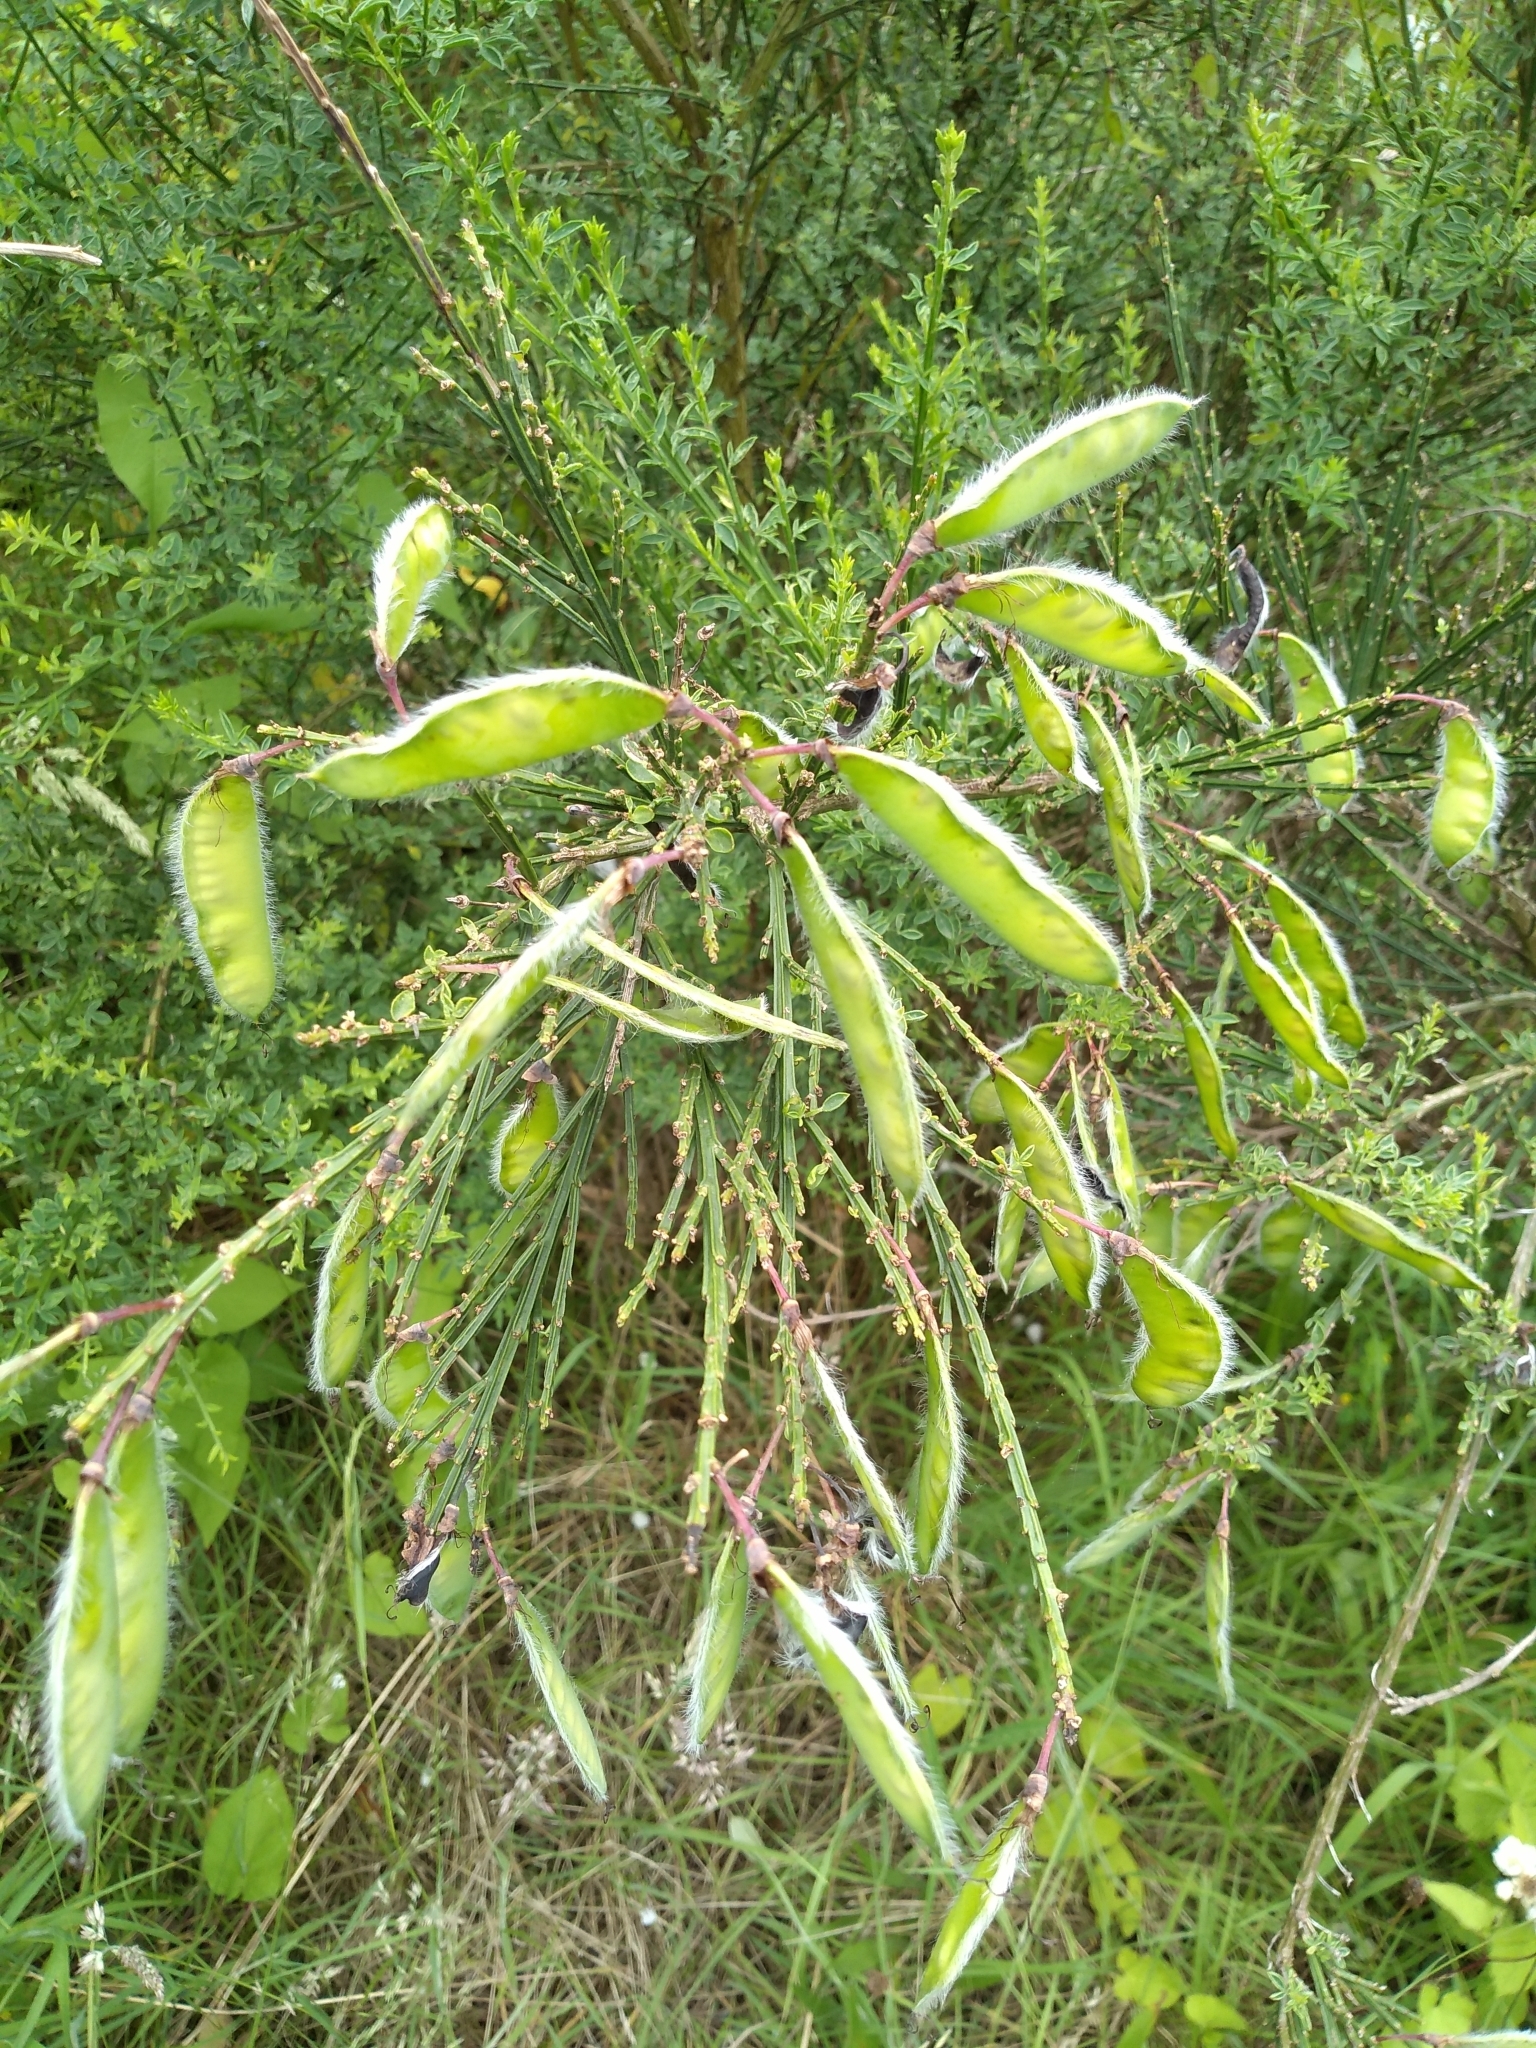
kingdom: Plantae
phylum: Tracheophyta
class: Magnoliopsida
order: Fabales
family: Fabaceae
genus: Cytisus
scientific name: Cytisus scoparius
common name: Scotch broom
